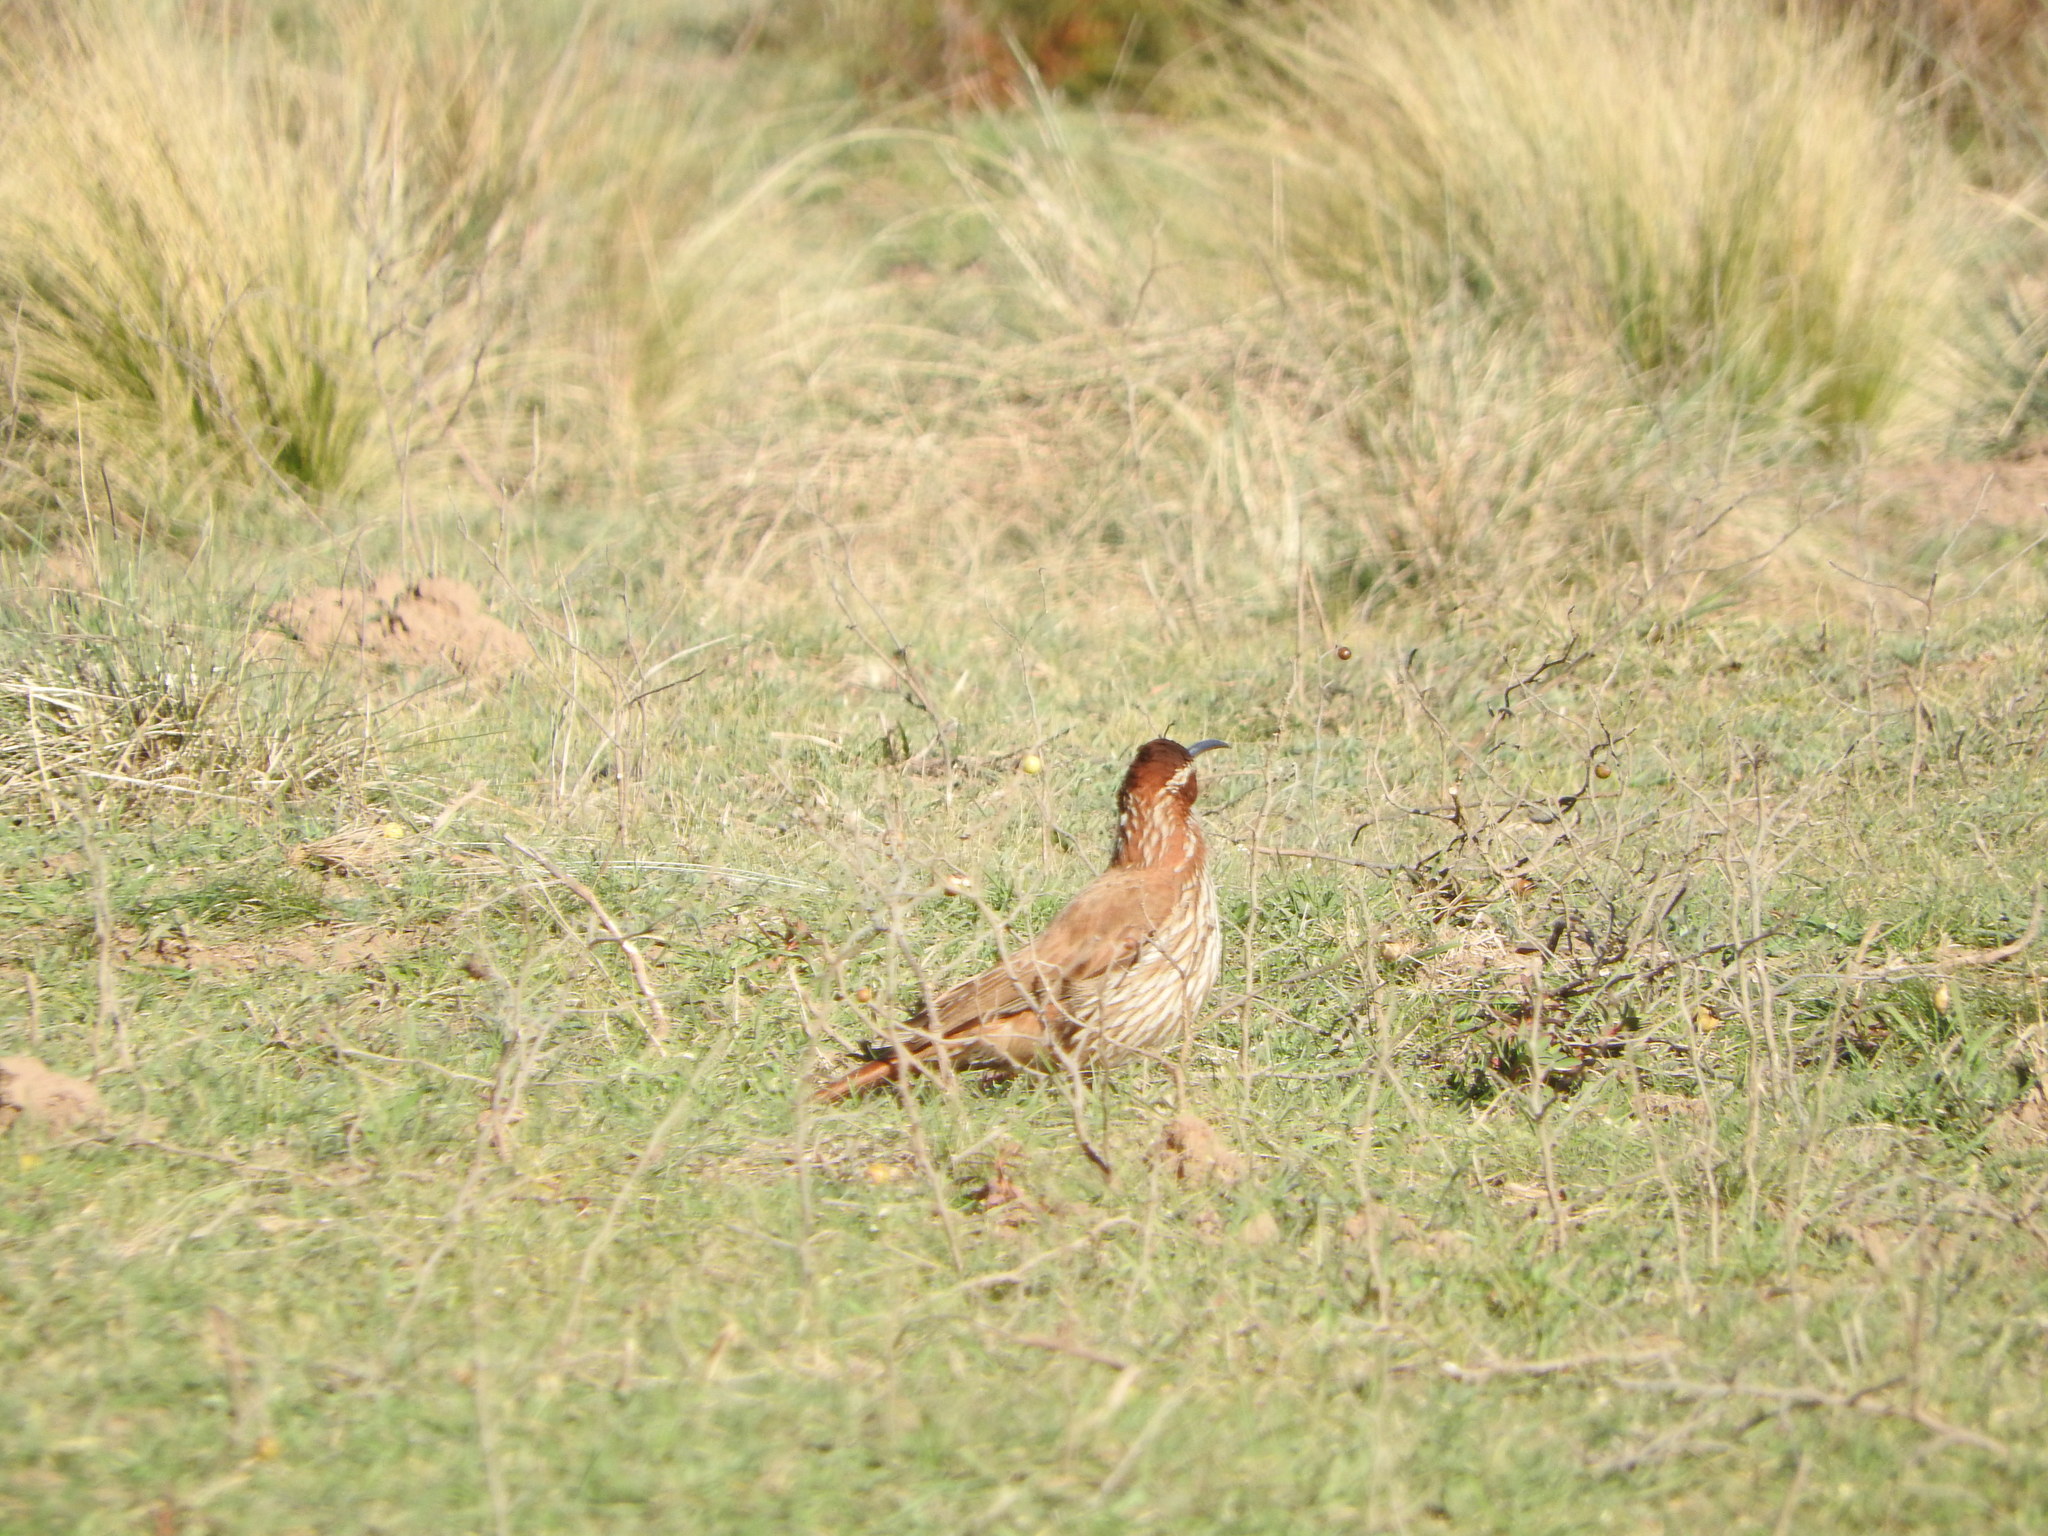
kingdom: Animalia
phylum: Chordata
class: Aves
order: Passeriformes
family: Furnariidae
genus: Drymornis
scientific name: Drymornis bridgesii
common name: Scimitar-billed woodcreeper
